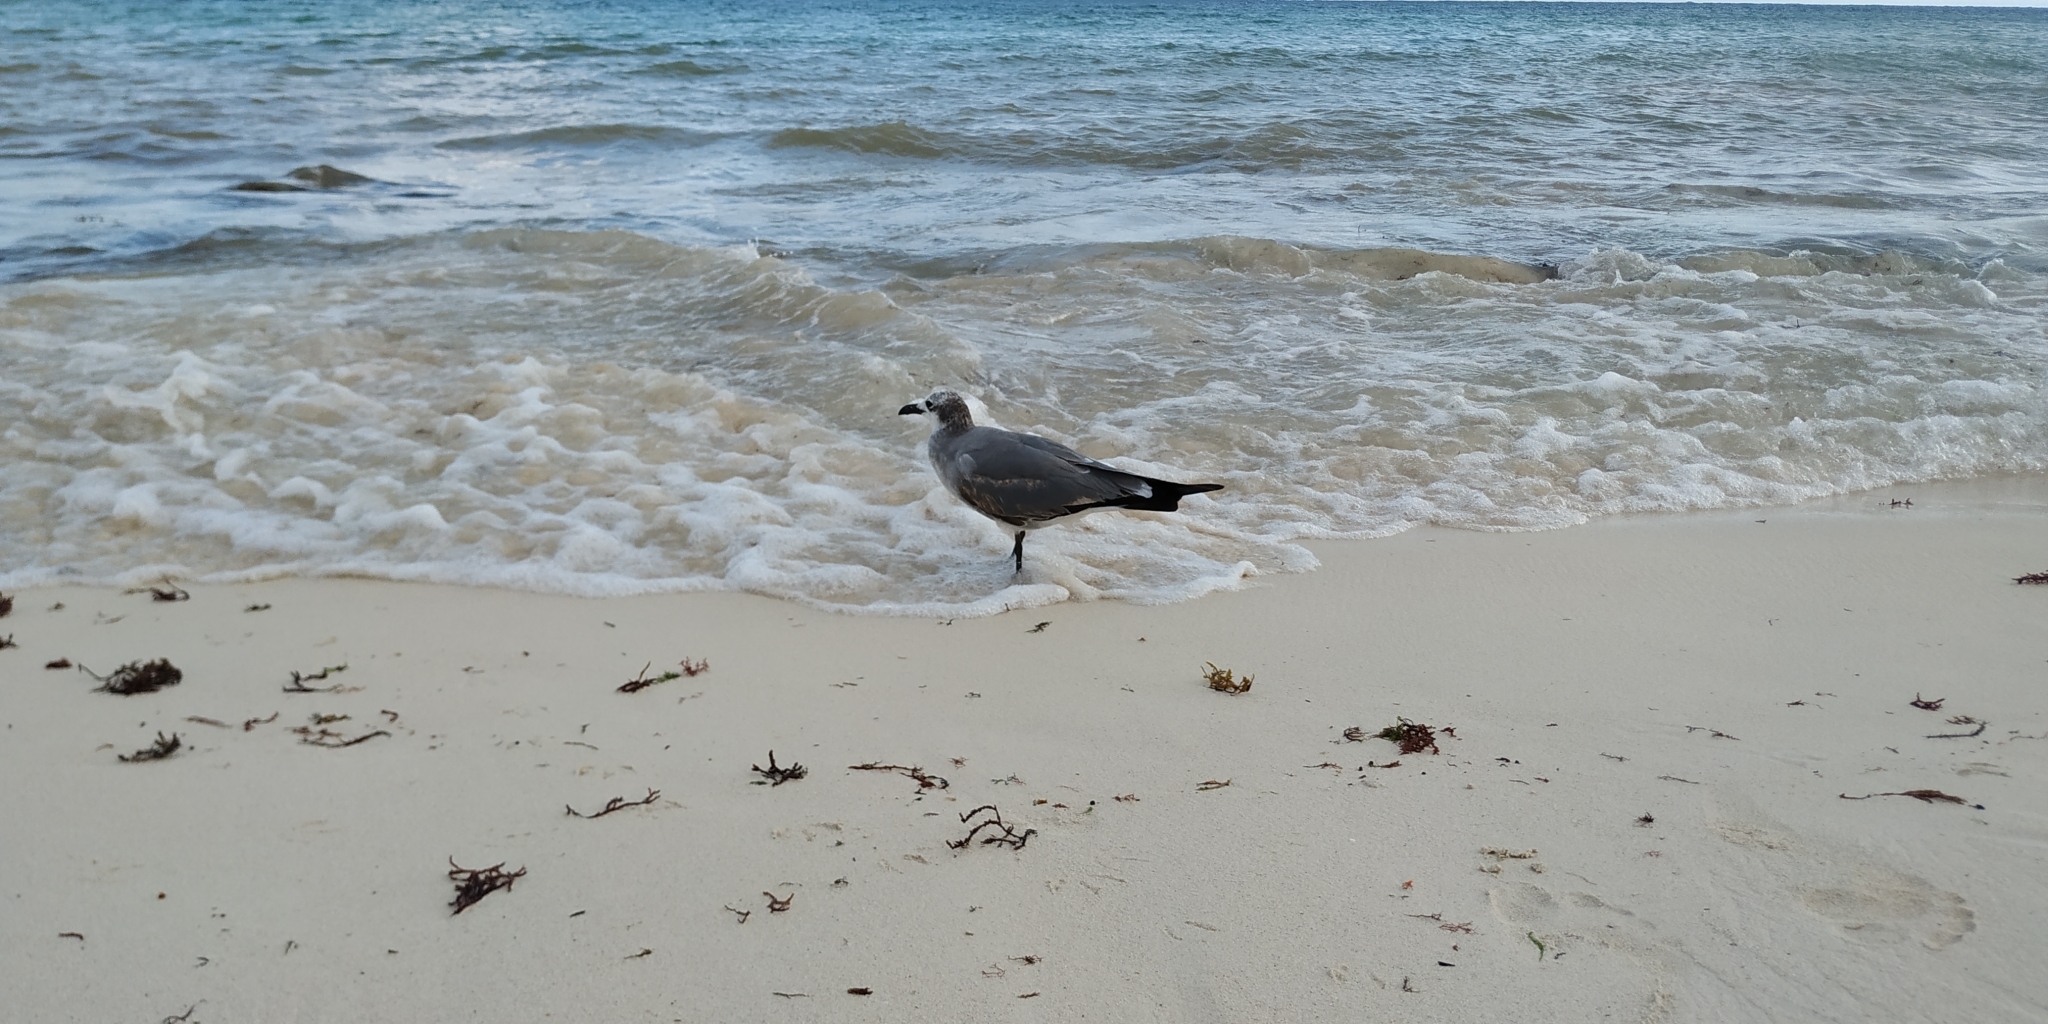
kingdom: Animalia
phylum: Chordata
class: Aves
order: Charadriiformes
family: Laridae
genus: Leucophaeus
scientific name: Leucophaeus atricilla
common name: Laughing gull
